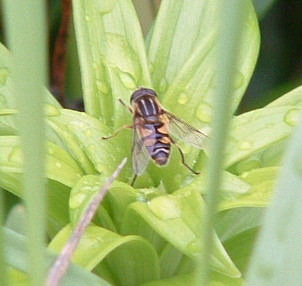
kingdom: Animalia
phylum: Arthropoda
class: Insecta
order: Diptera
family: Syrphidae
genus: Helophilus
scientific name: Helophilus fasciatus
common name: Narrow-headed marsh fly
